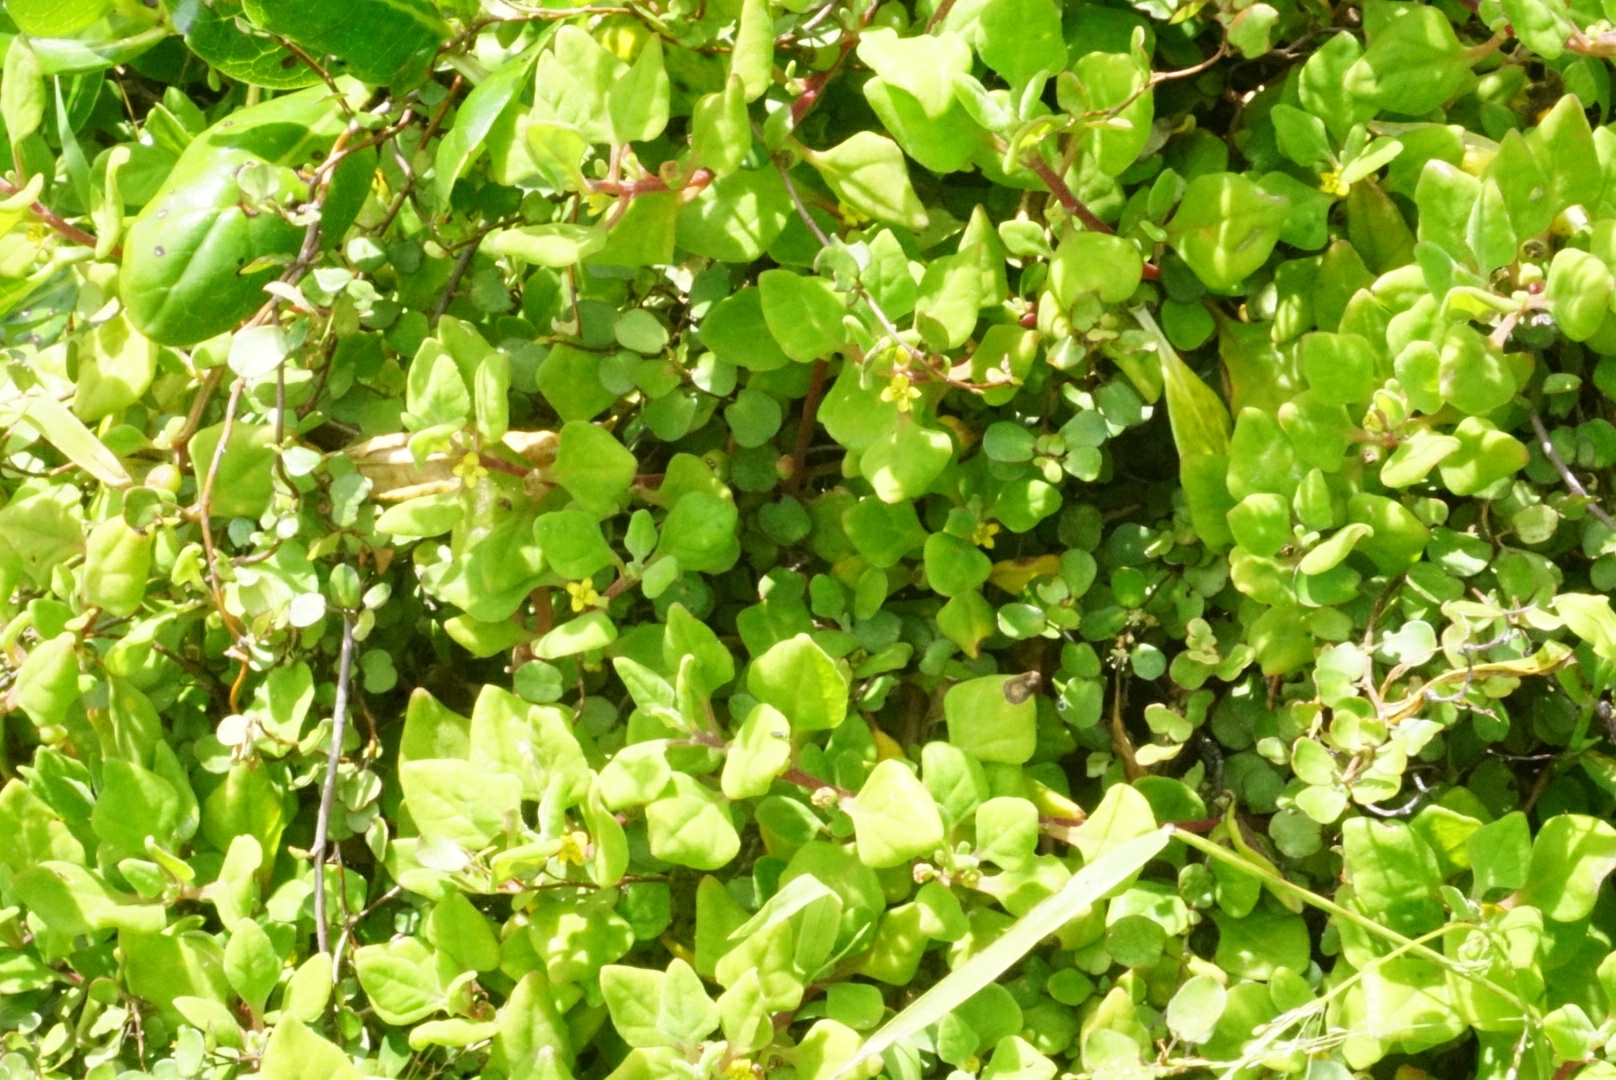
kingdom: Plantae
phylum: Tracheophyta
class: Magnoliopsida
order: Caryophyllales
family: Aizoaceae
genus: Tetragonia
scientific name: Tetragonia implexicoma
